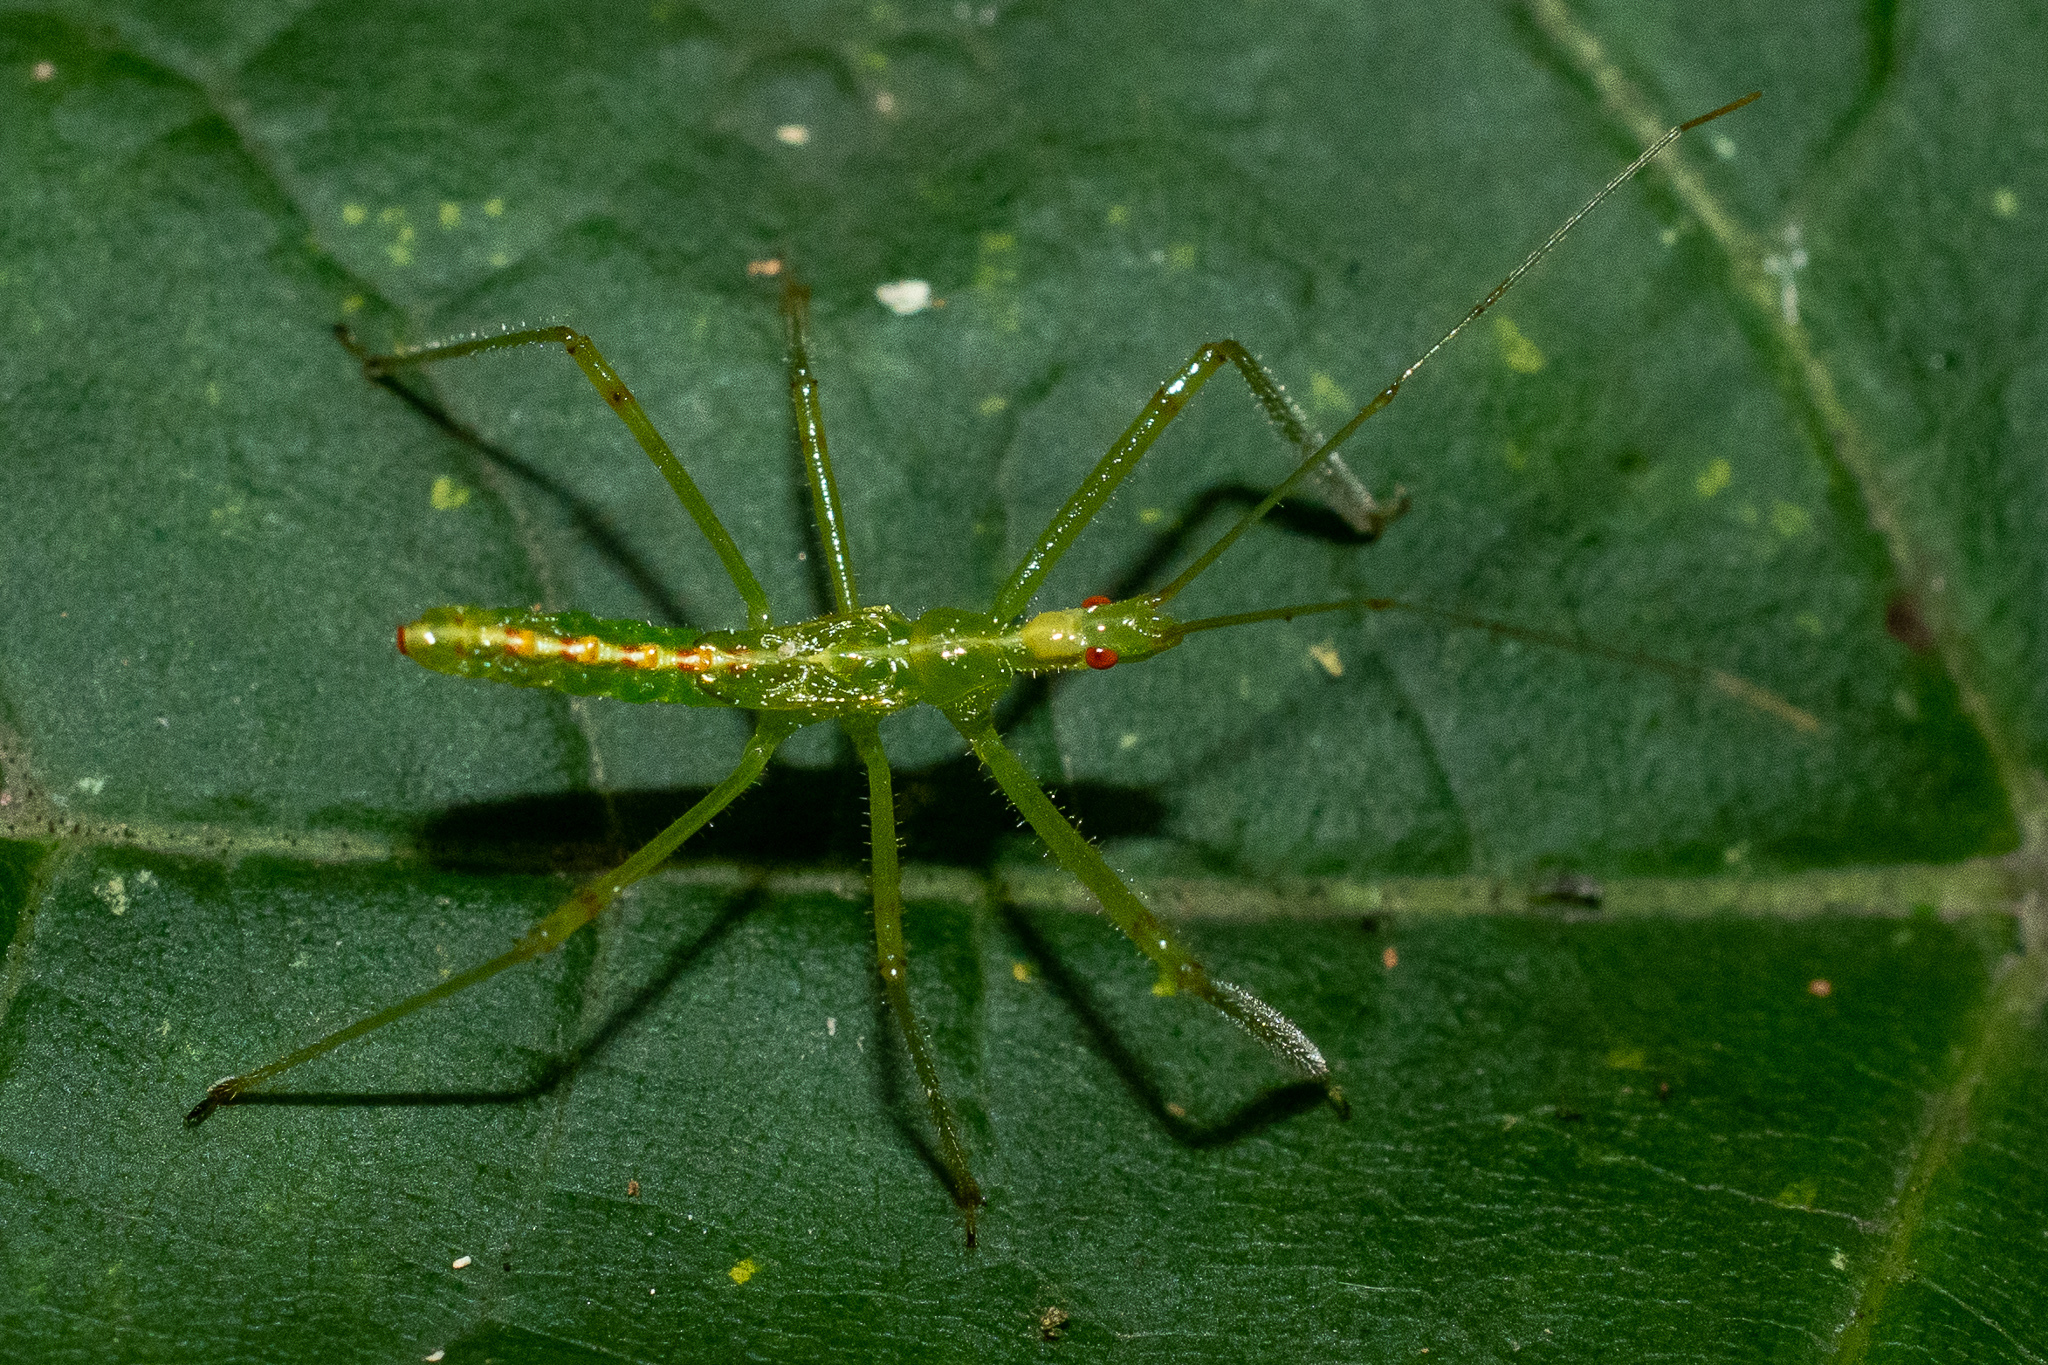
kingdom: Animalia
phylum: Arthropoda
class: Insecta
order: Hemiptera
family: Reduviidae
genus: Zelus
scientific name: Zelus luridus
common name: Pale green assassin bug
